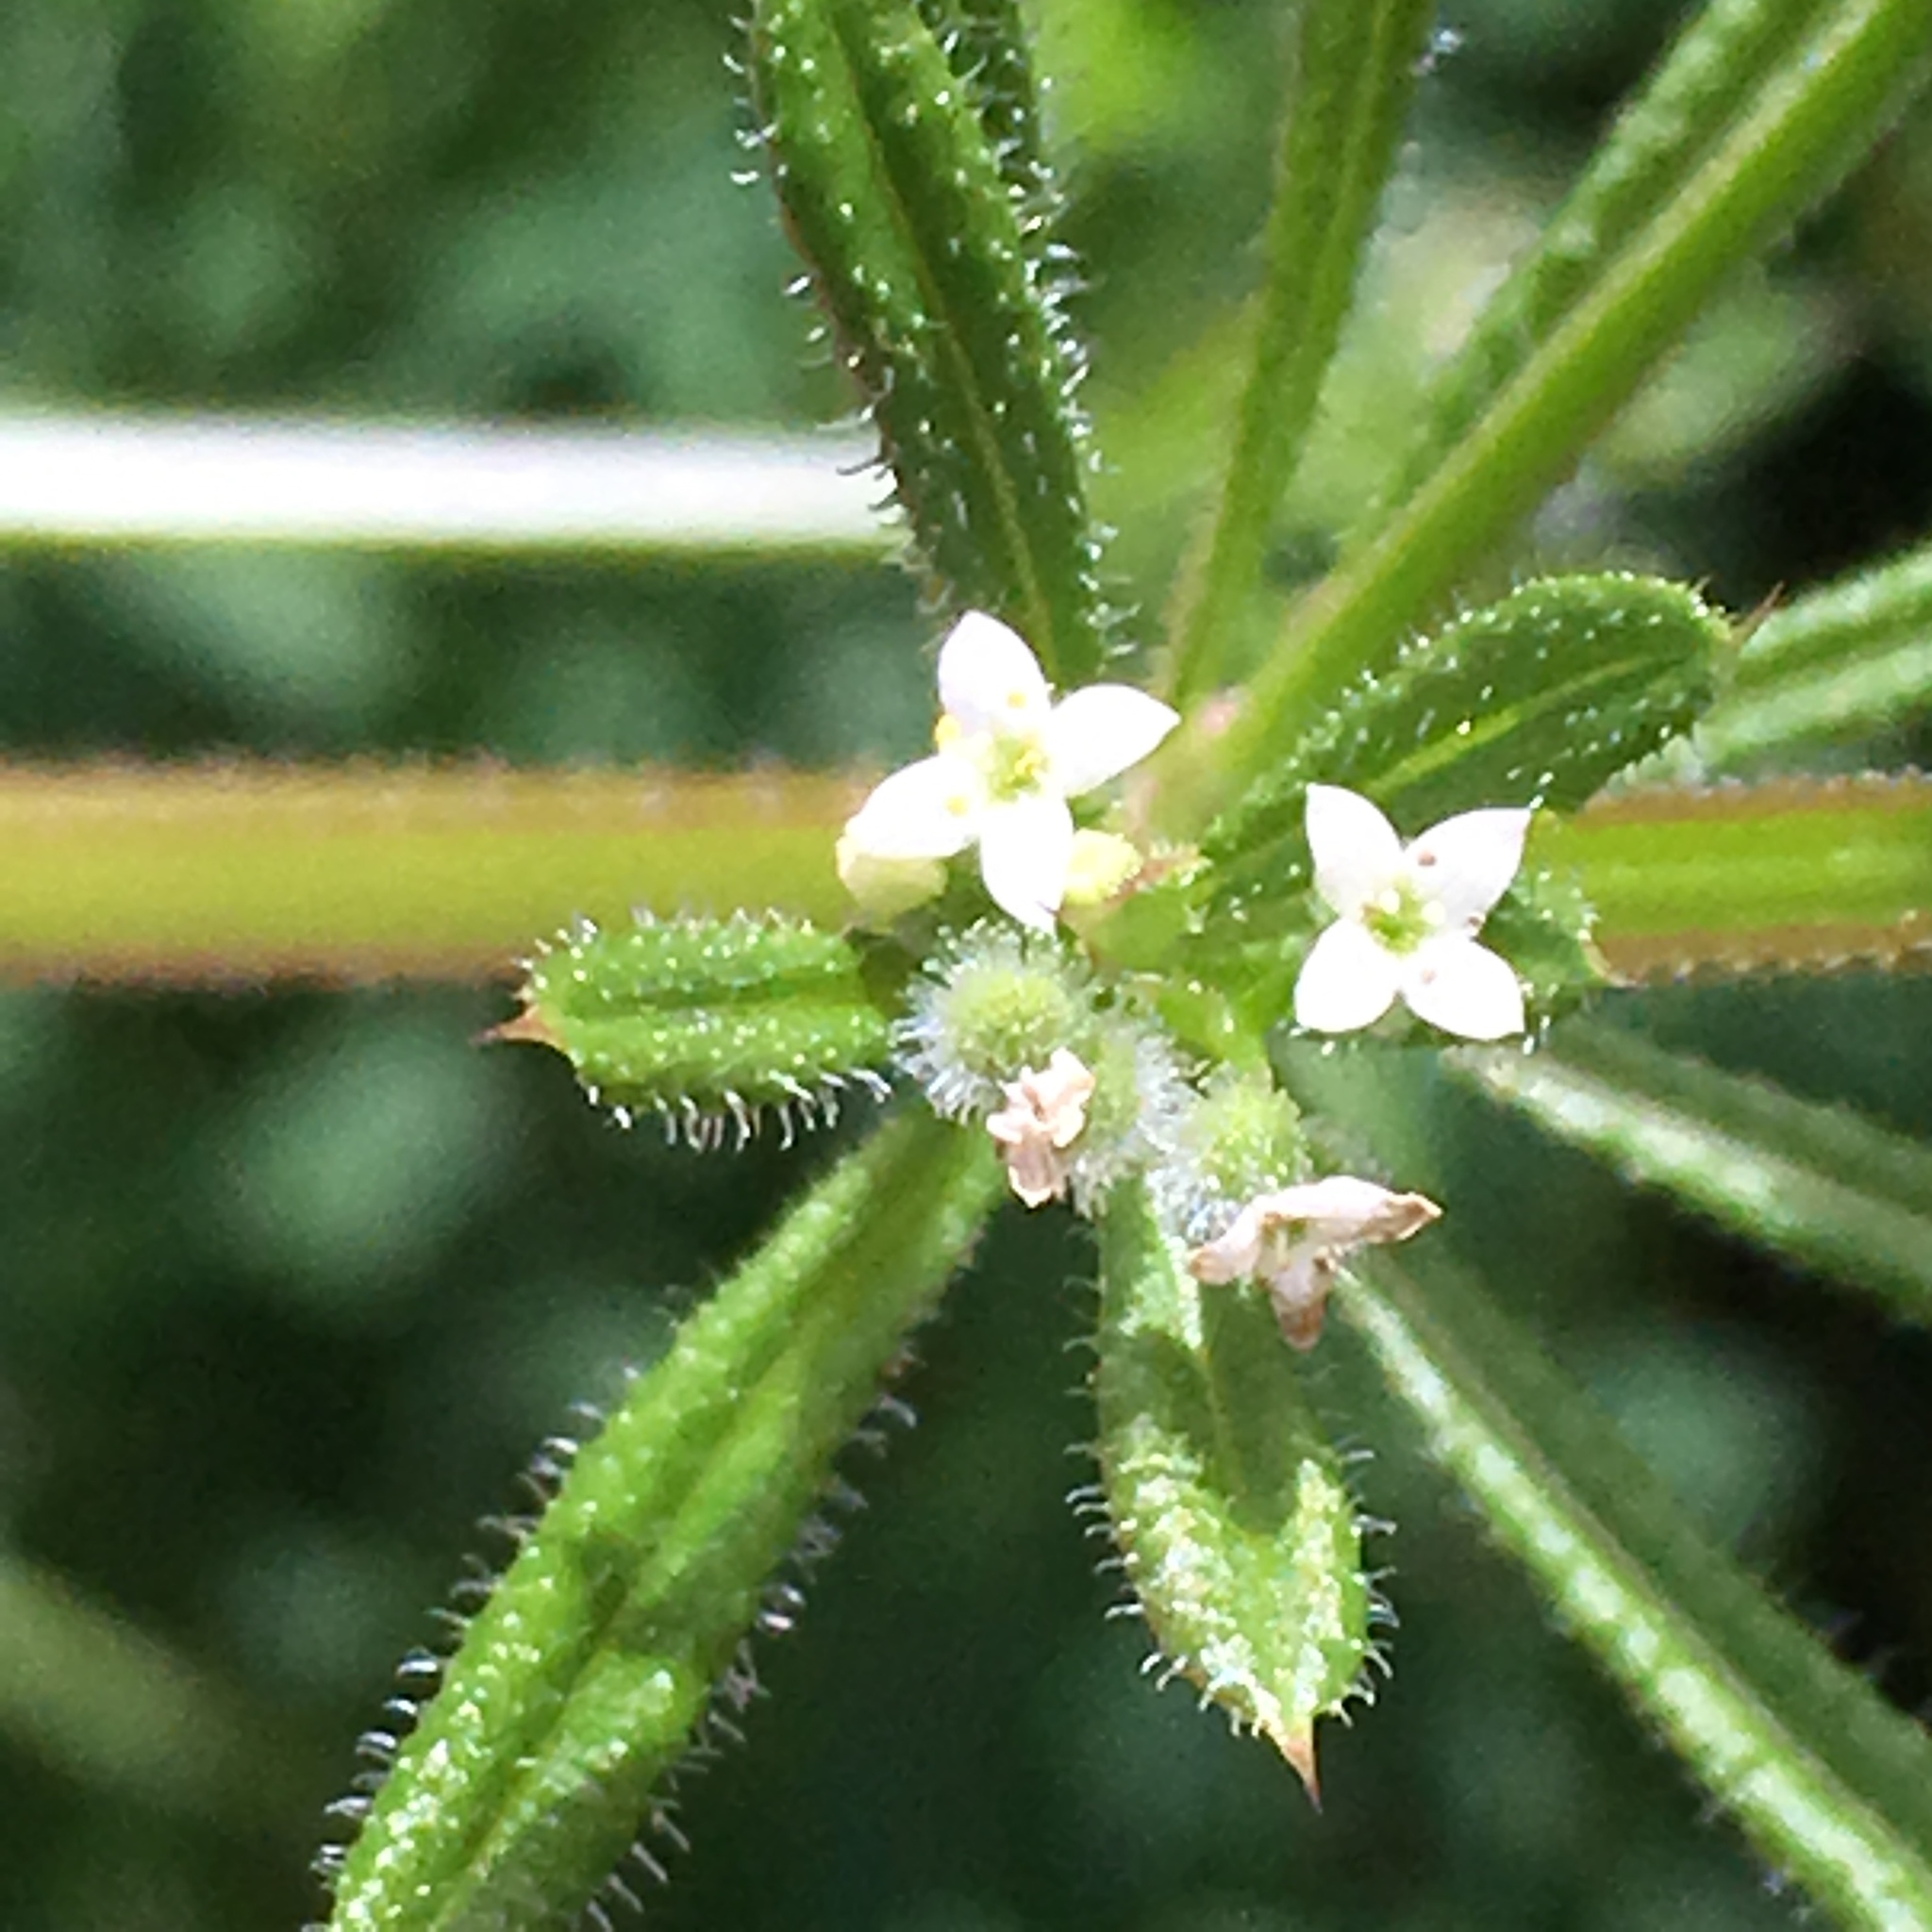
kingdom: Plantae
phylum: Tracheophyta
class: Magnoliopsida
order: Gentianales
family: Rubiaceae
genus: Galium
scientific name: Galium aparine
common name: Cleavers
